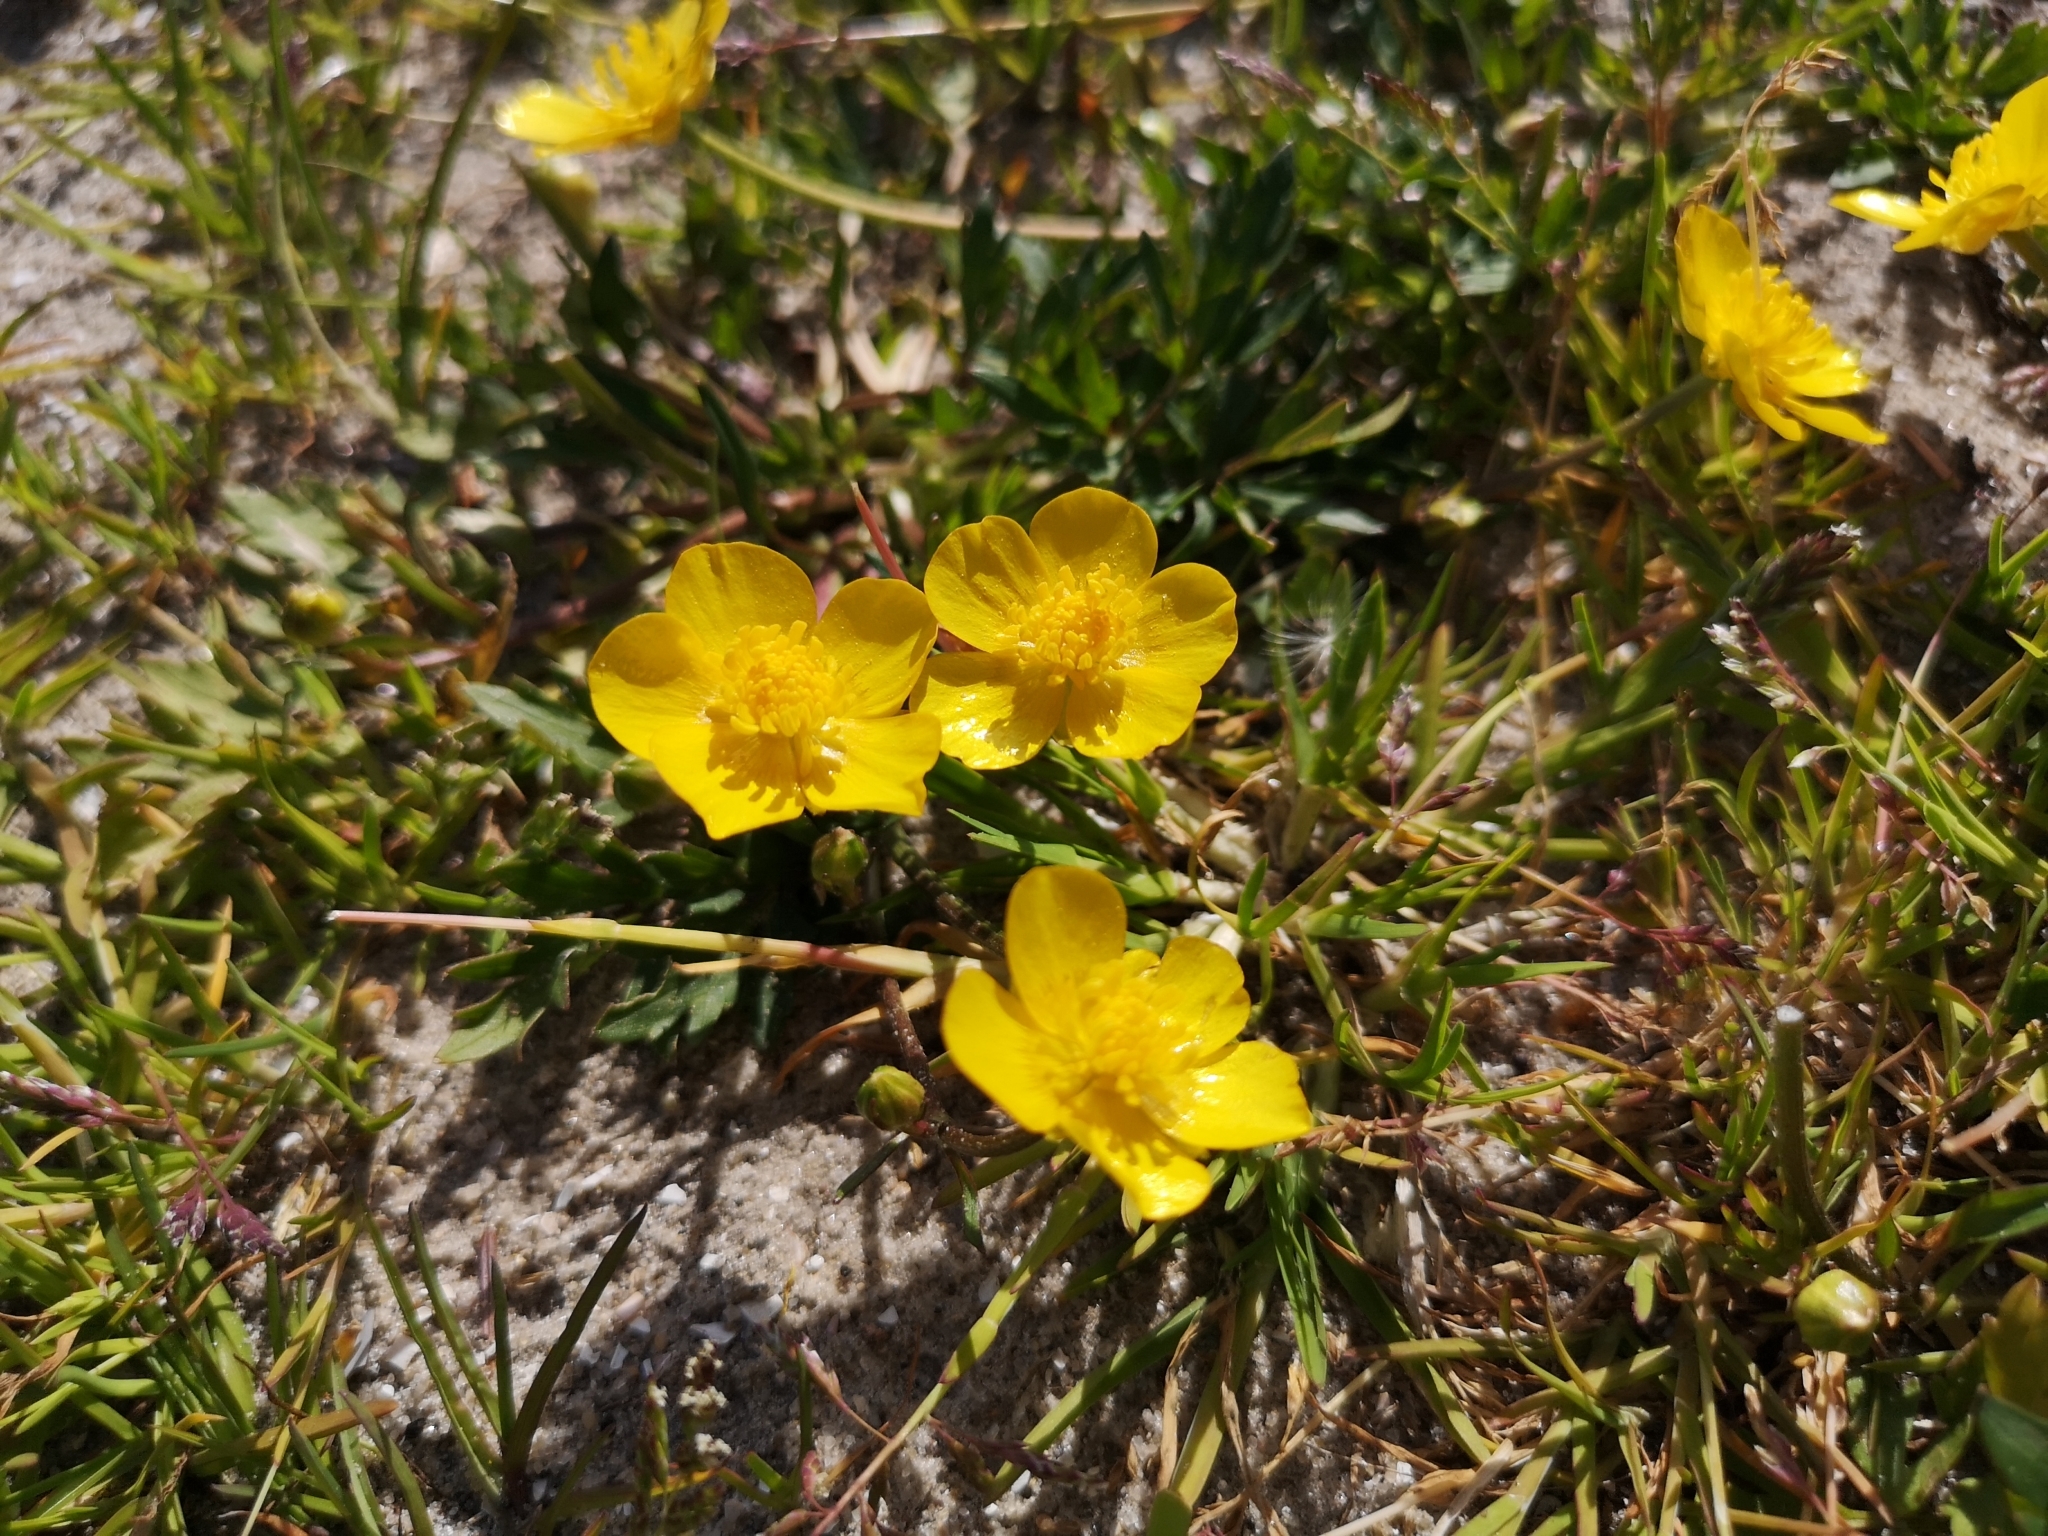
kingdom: Plantae
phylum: Tracheophyta
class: Magnoliopsida
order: Ranunculales
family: Ranunculaceae
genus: Ranunculus
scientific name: Ranunculus repens
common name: Creeping buttercup
